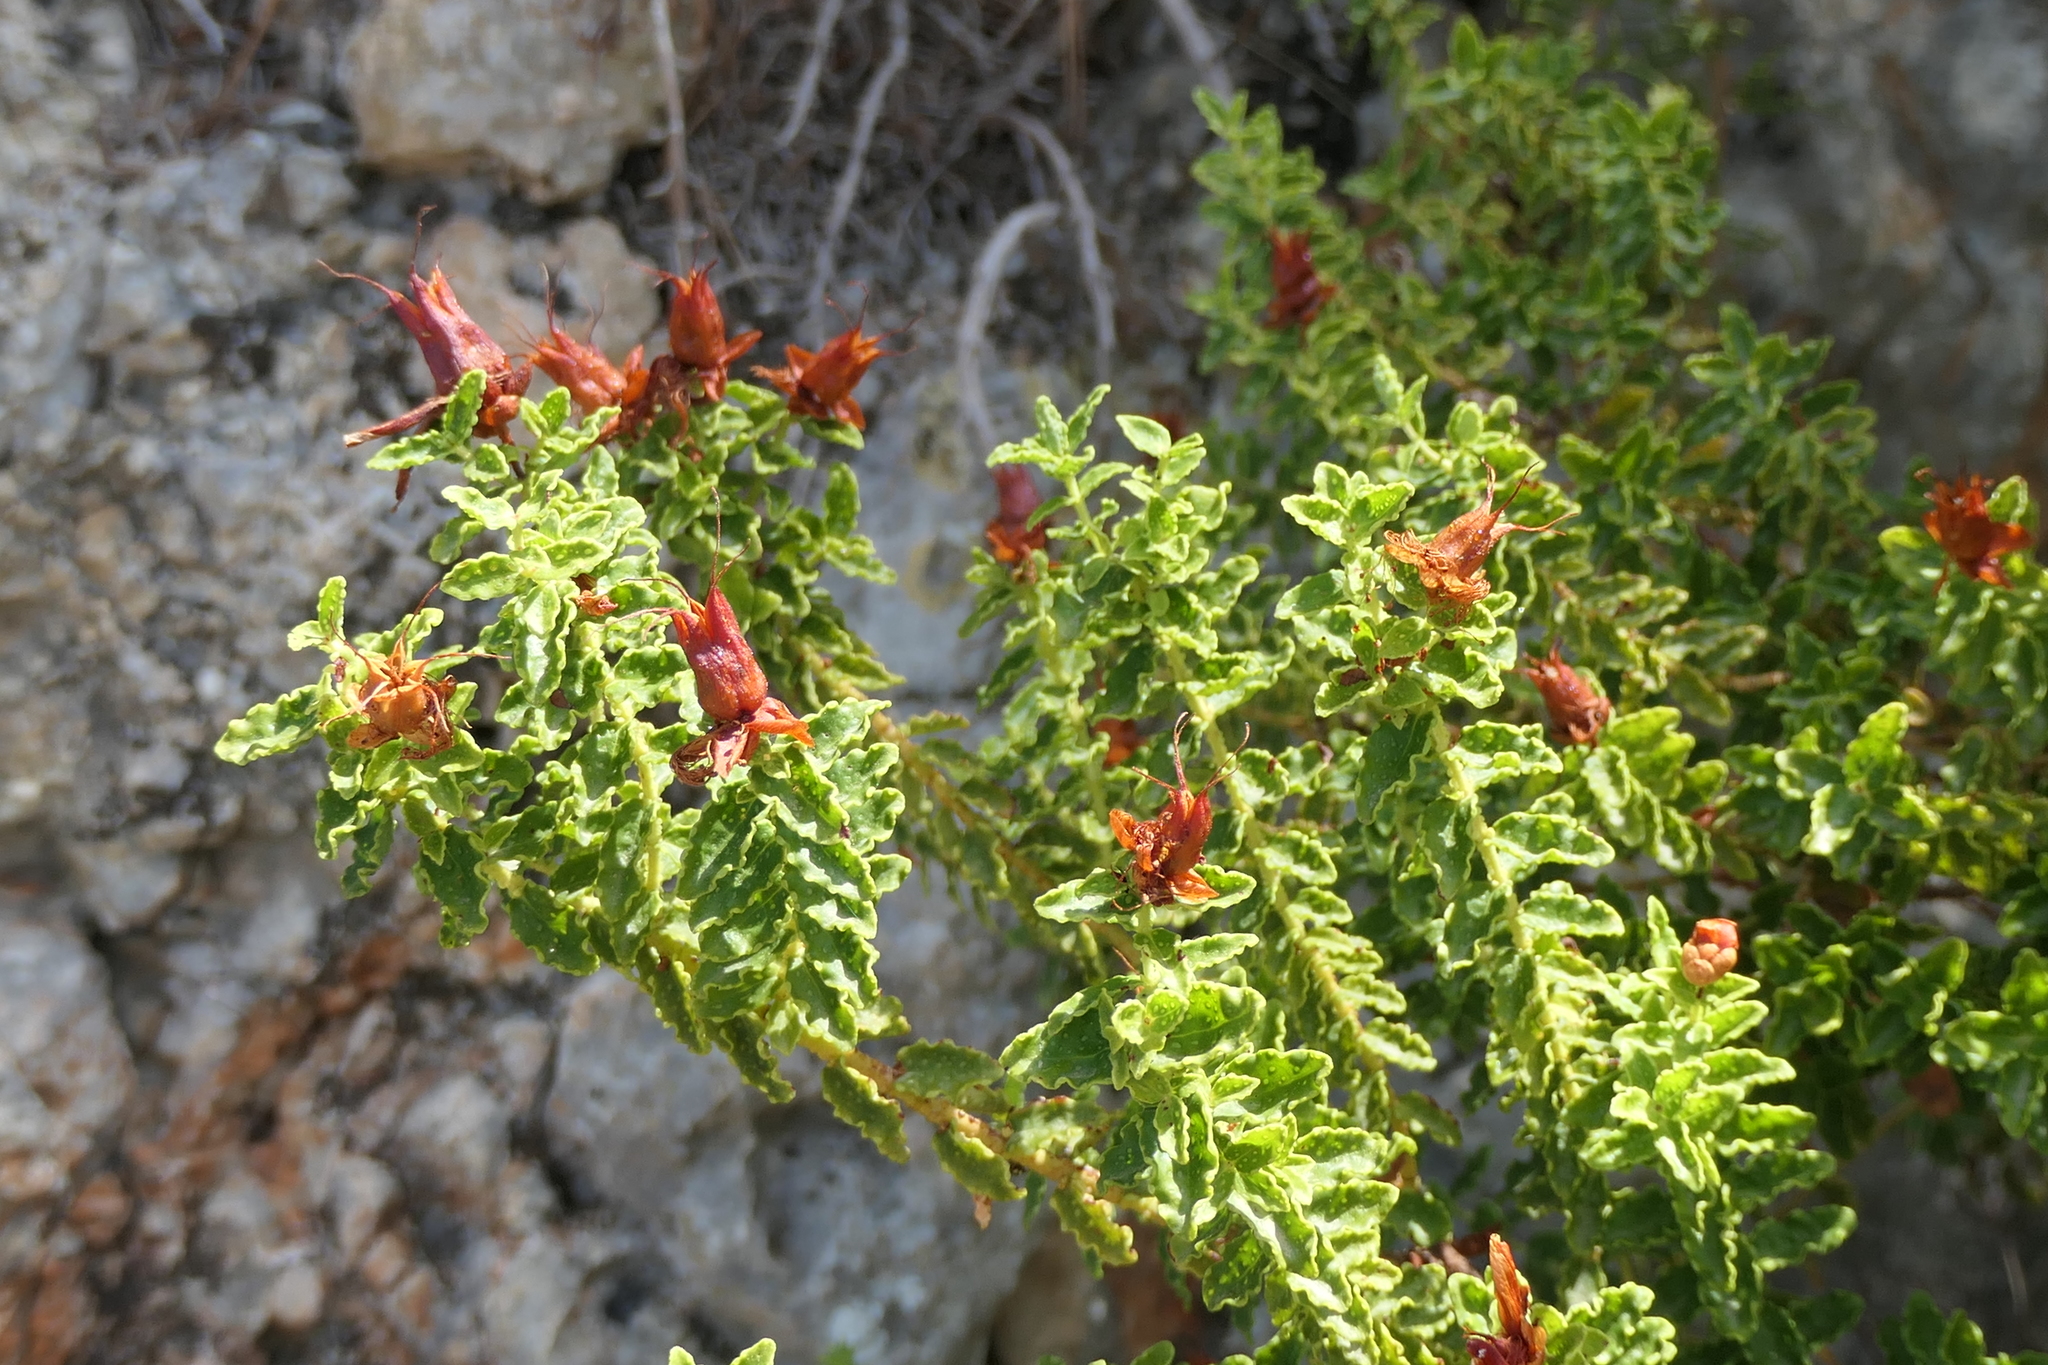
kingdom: Plantae
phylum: Tracheophyta
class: Magnoliopsida
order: Malpighiales
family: Hypericaceae
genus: Hypericum
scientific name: Hypericum balearicum
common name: Majorca st john's wort
